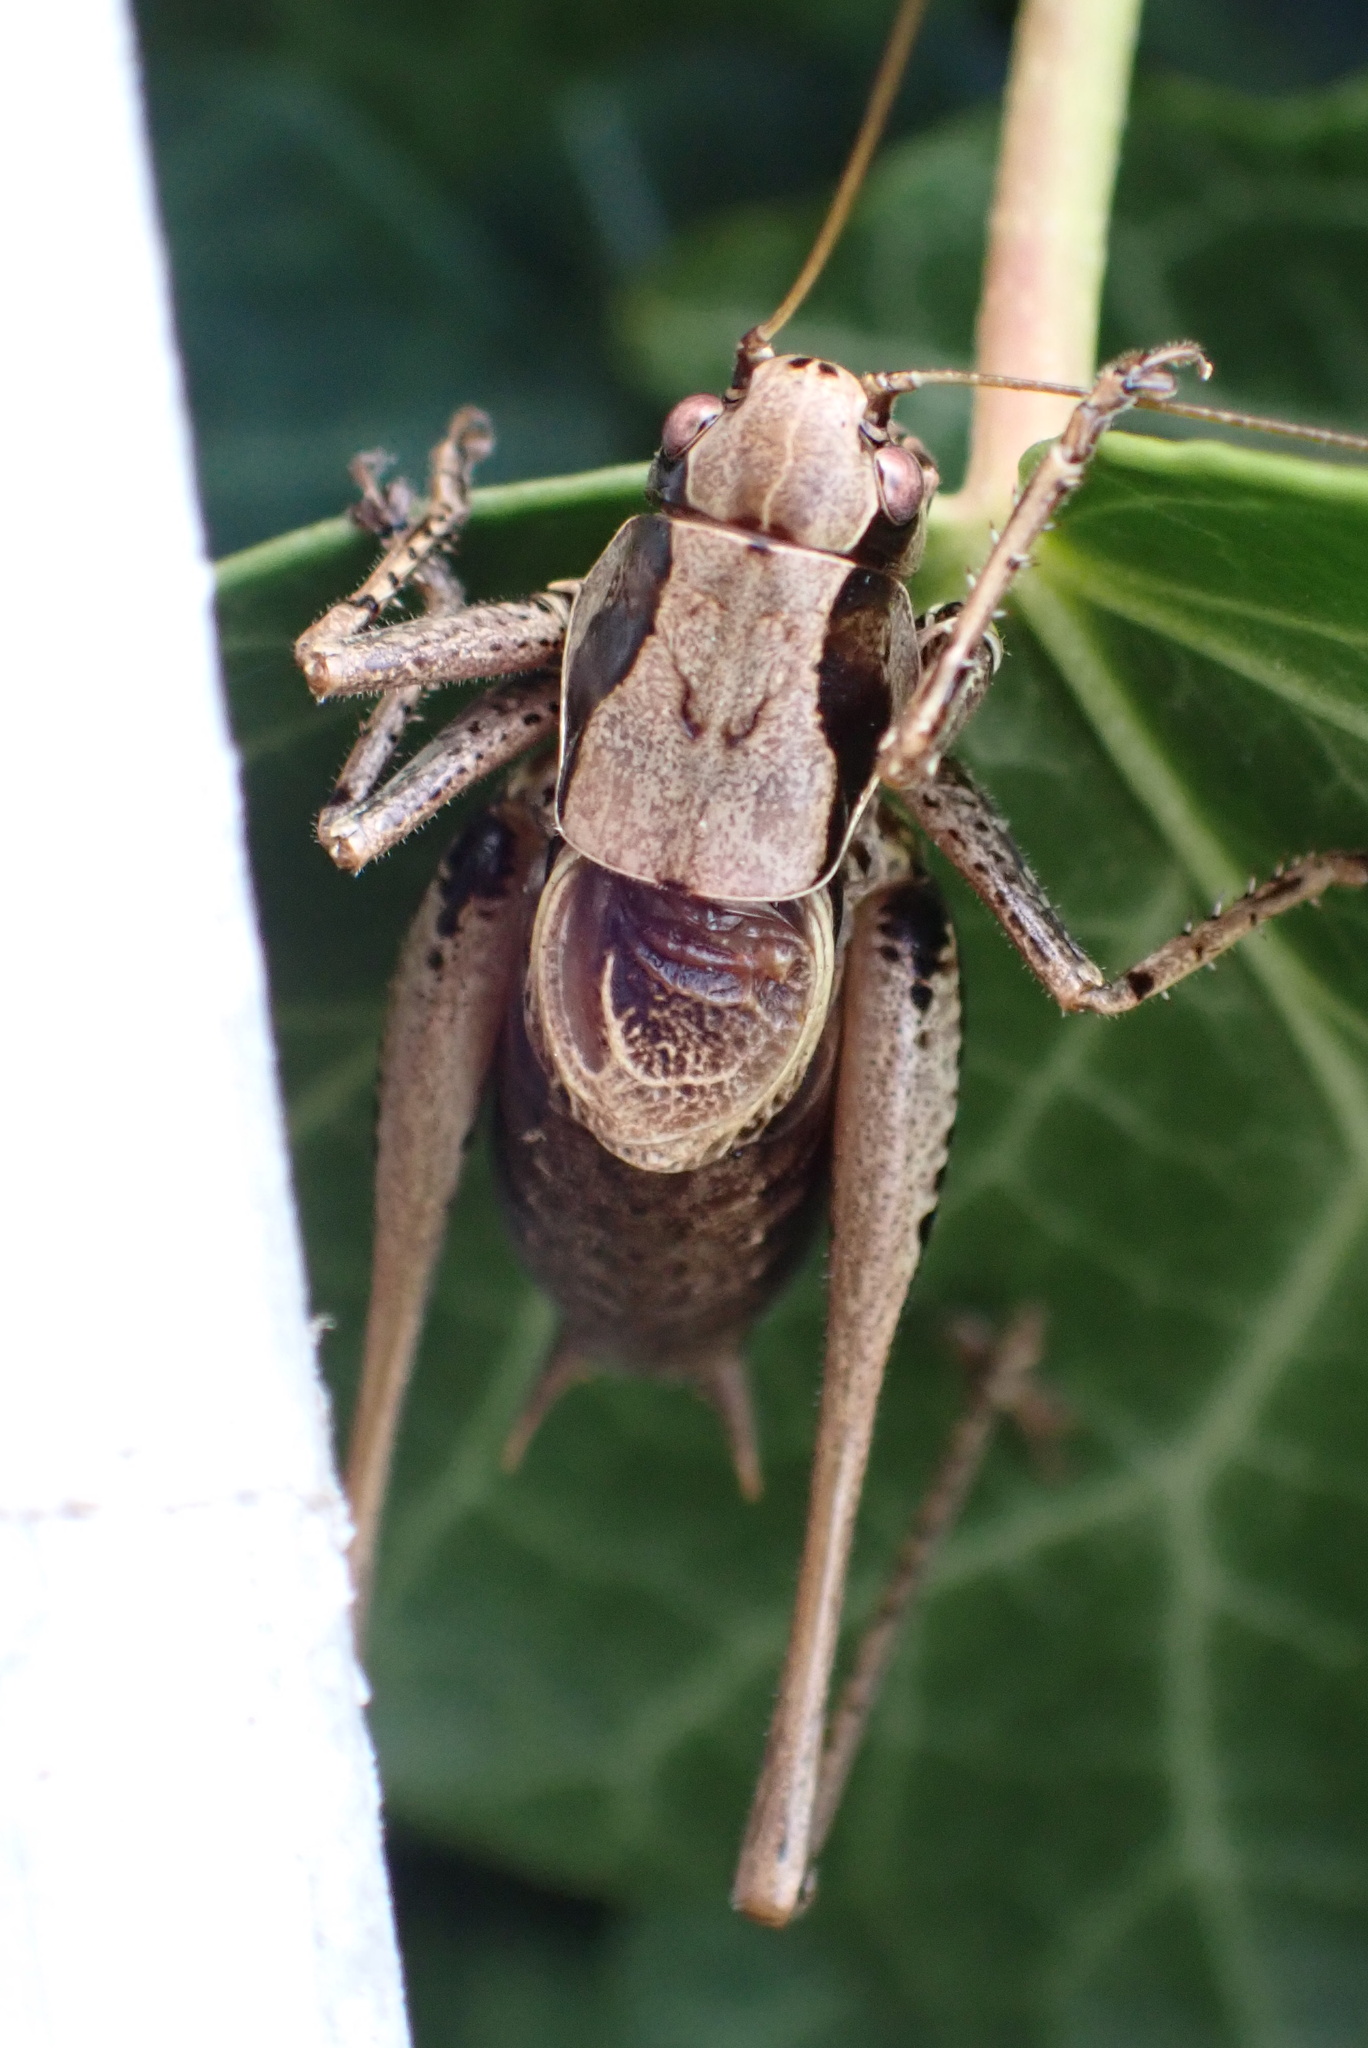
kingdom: Animalia
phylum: Arthropoda
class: Insecta
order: Orthoptera
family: Tettigoniidae
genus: Pholidoptera
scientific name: Pholidoptera griseoaptera
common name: Dark bush-cricket
